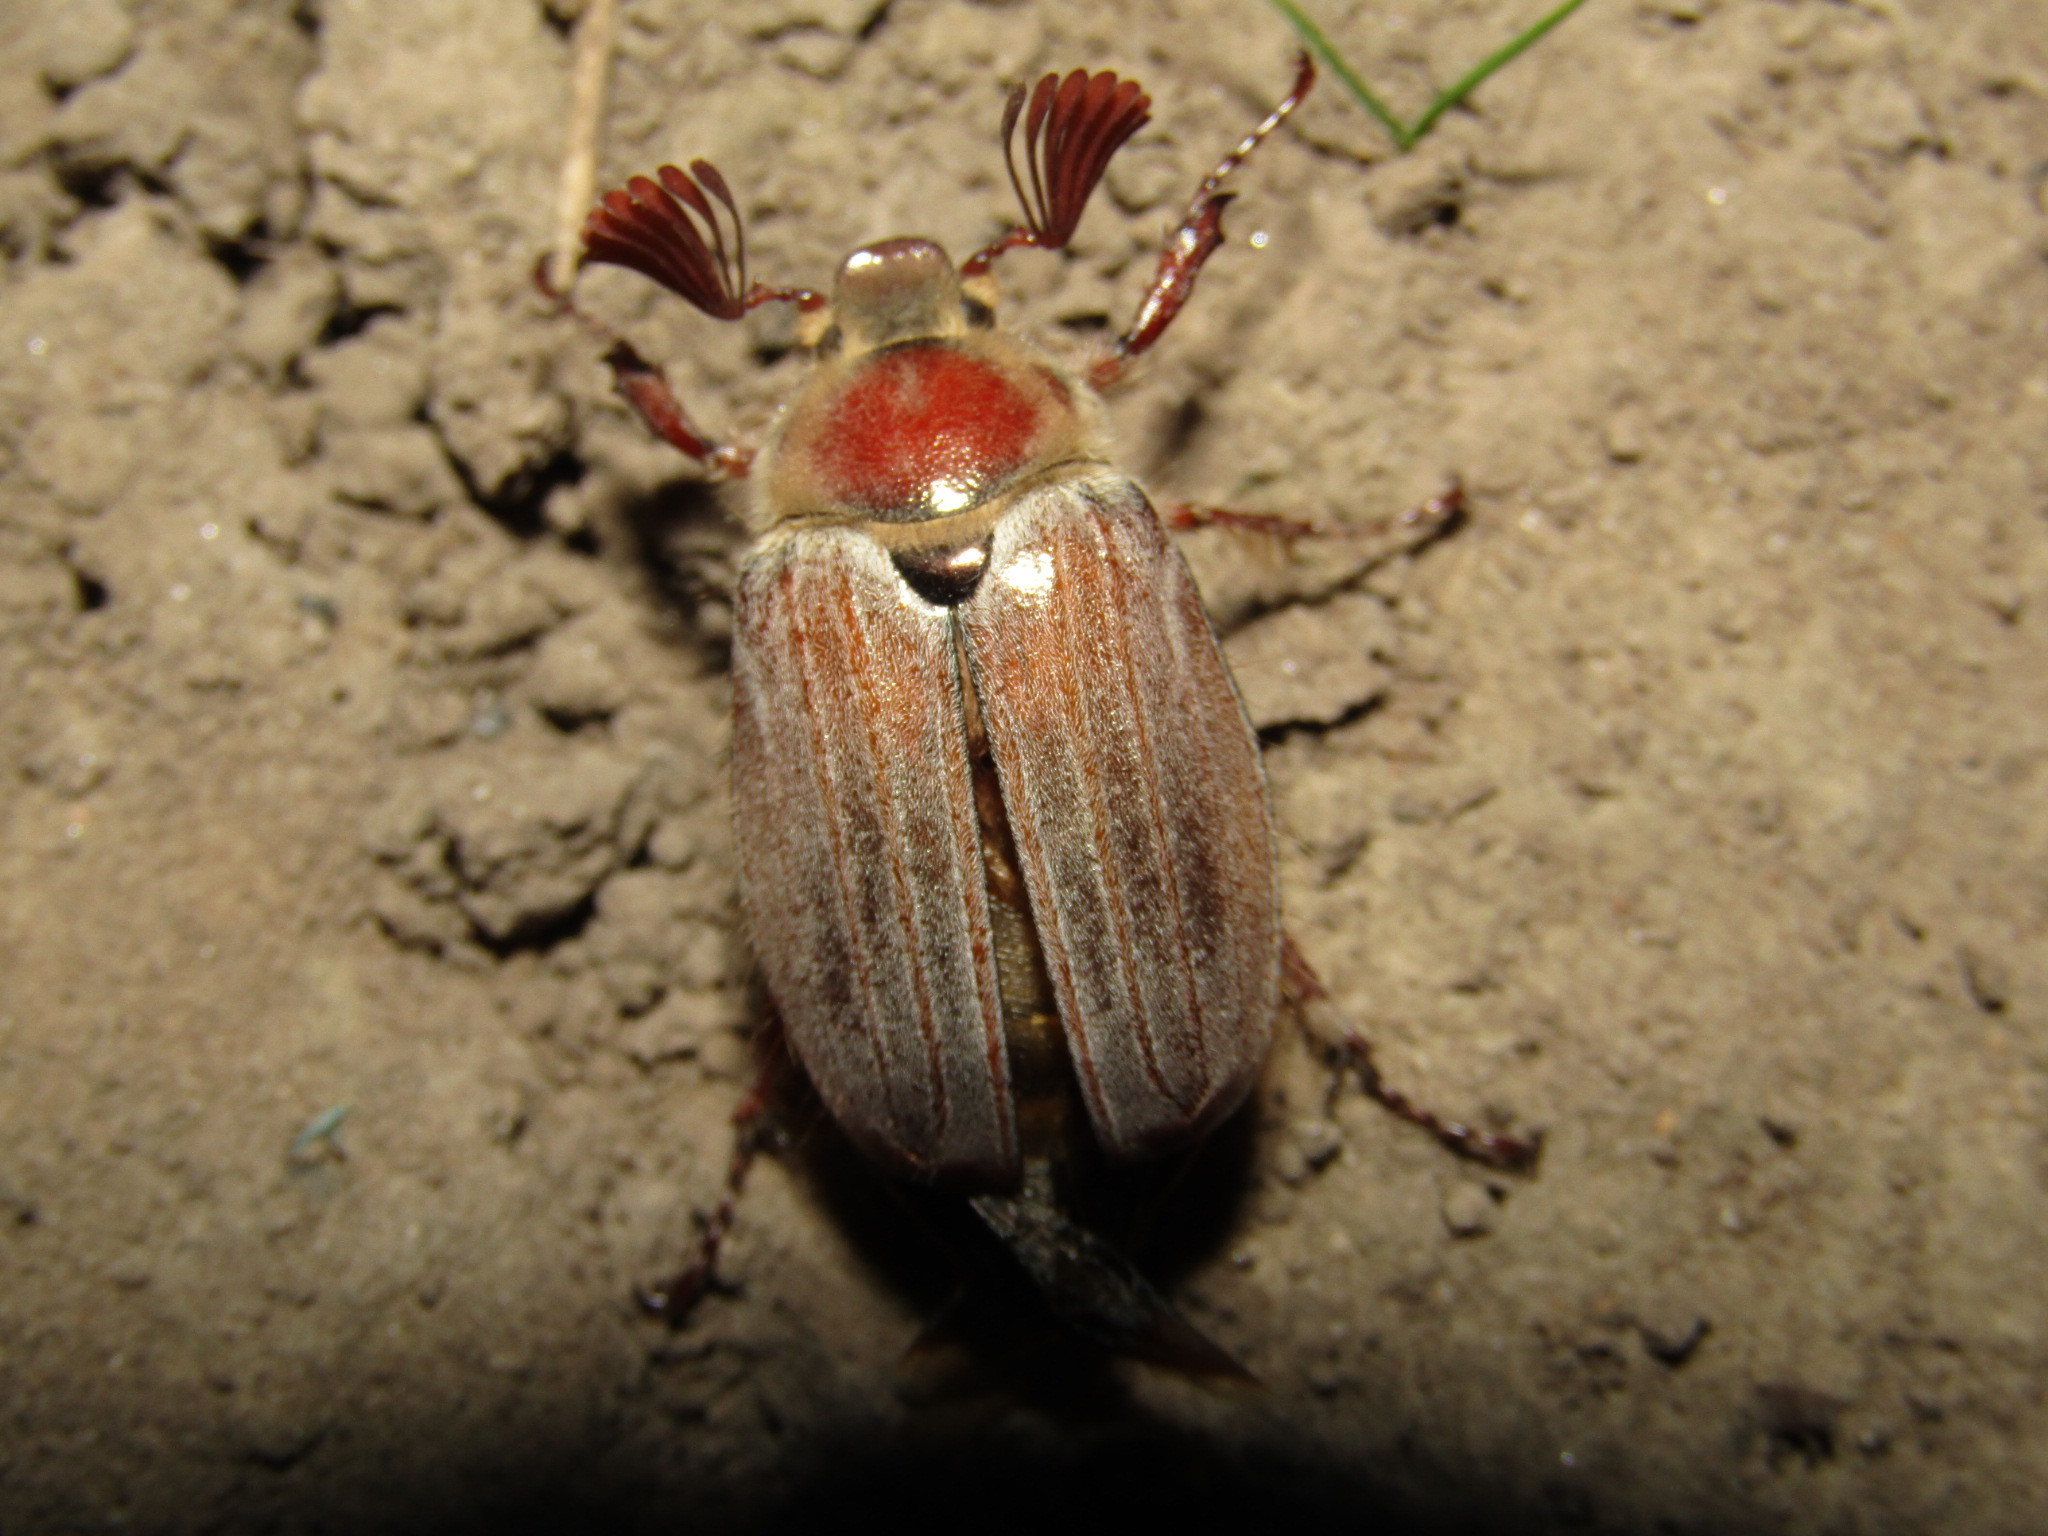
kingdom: Animalia
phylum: Arthropoda
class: Insecta
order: Coleoptera
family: Scarabaeidae
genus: Melolontha
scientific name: Melolontha hippocastani
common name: Chestnut cockchafer
